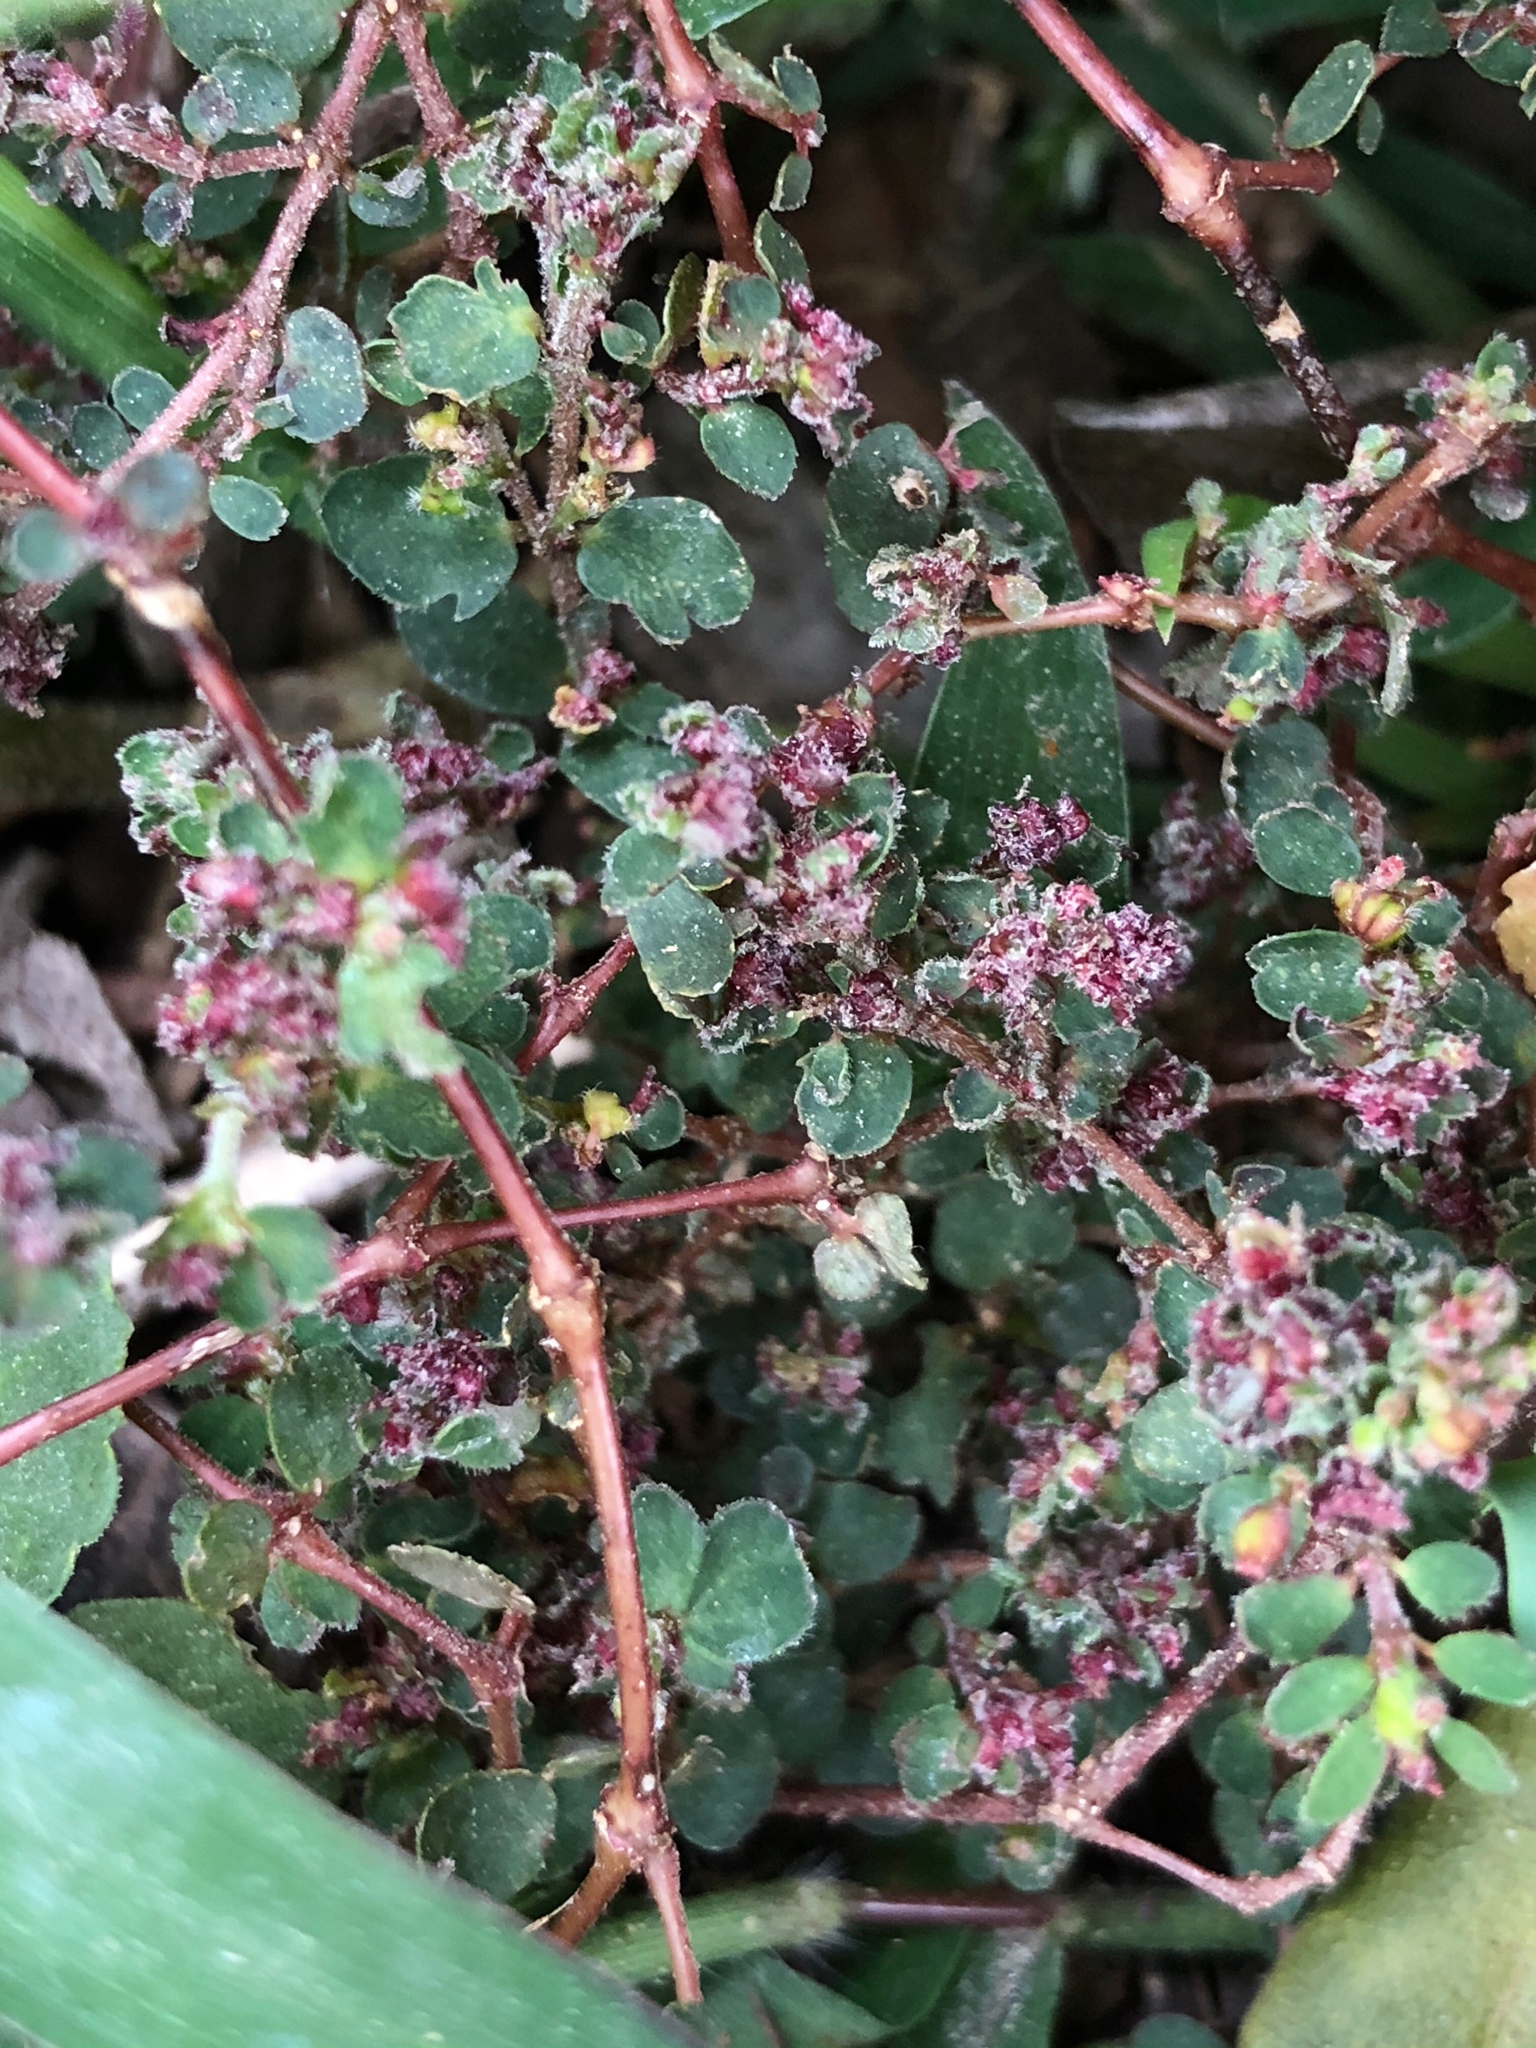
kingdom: Plantae
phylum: Tracheophyta
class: Magnoliopsida
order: Malpighiales
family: Euphorbiaceae
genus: Euphorbia
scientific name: Euphorbia prostrata
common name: Prostrate sandmat
